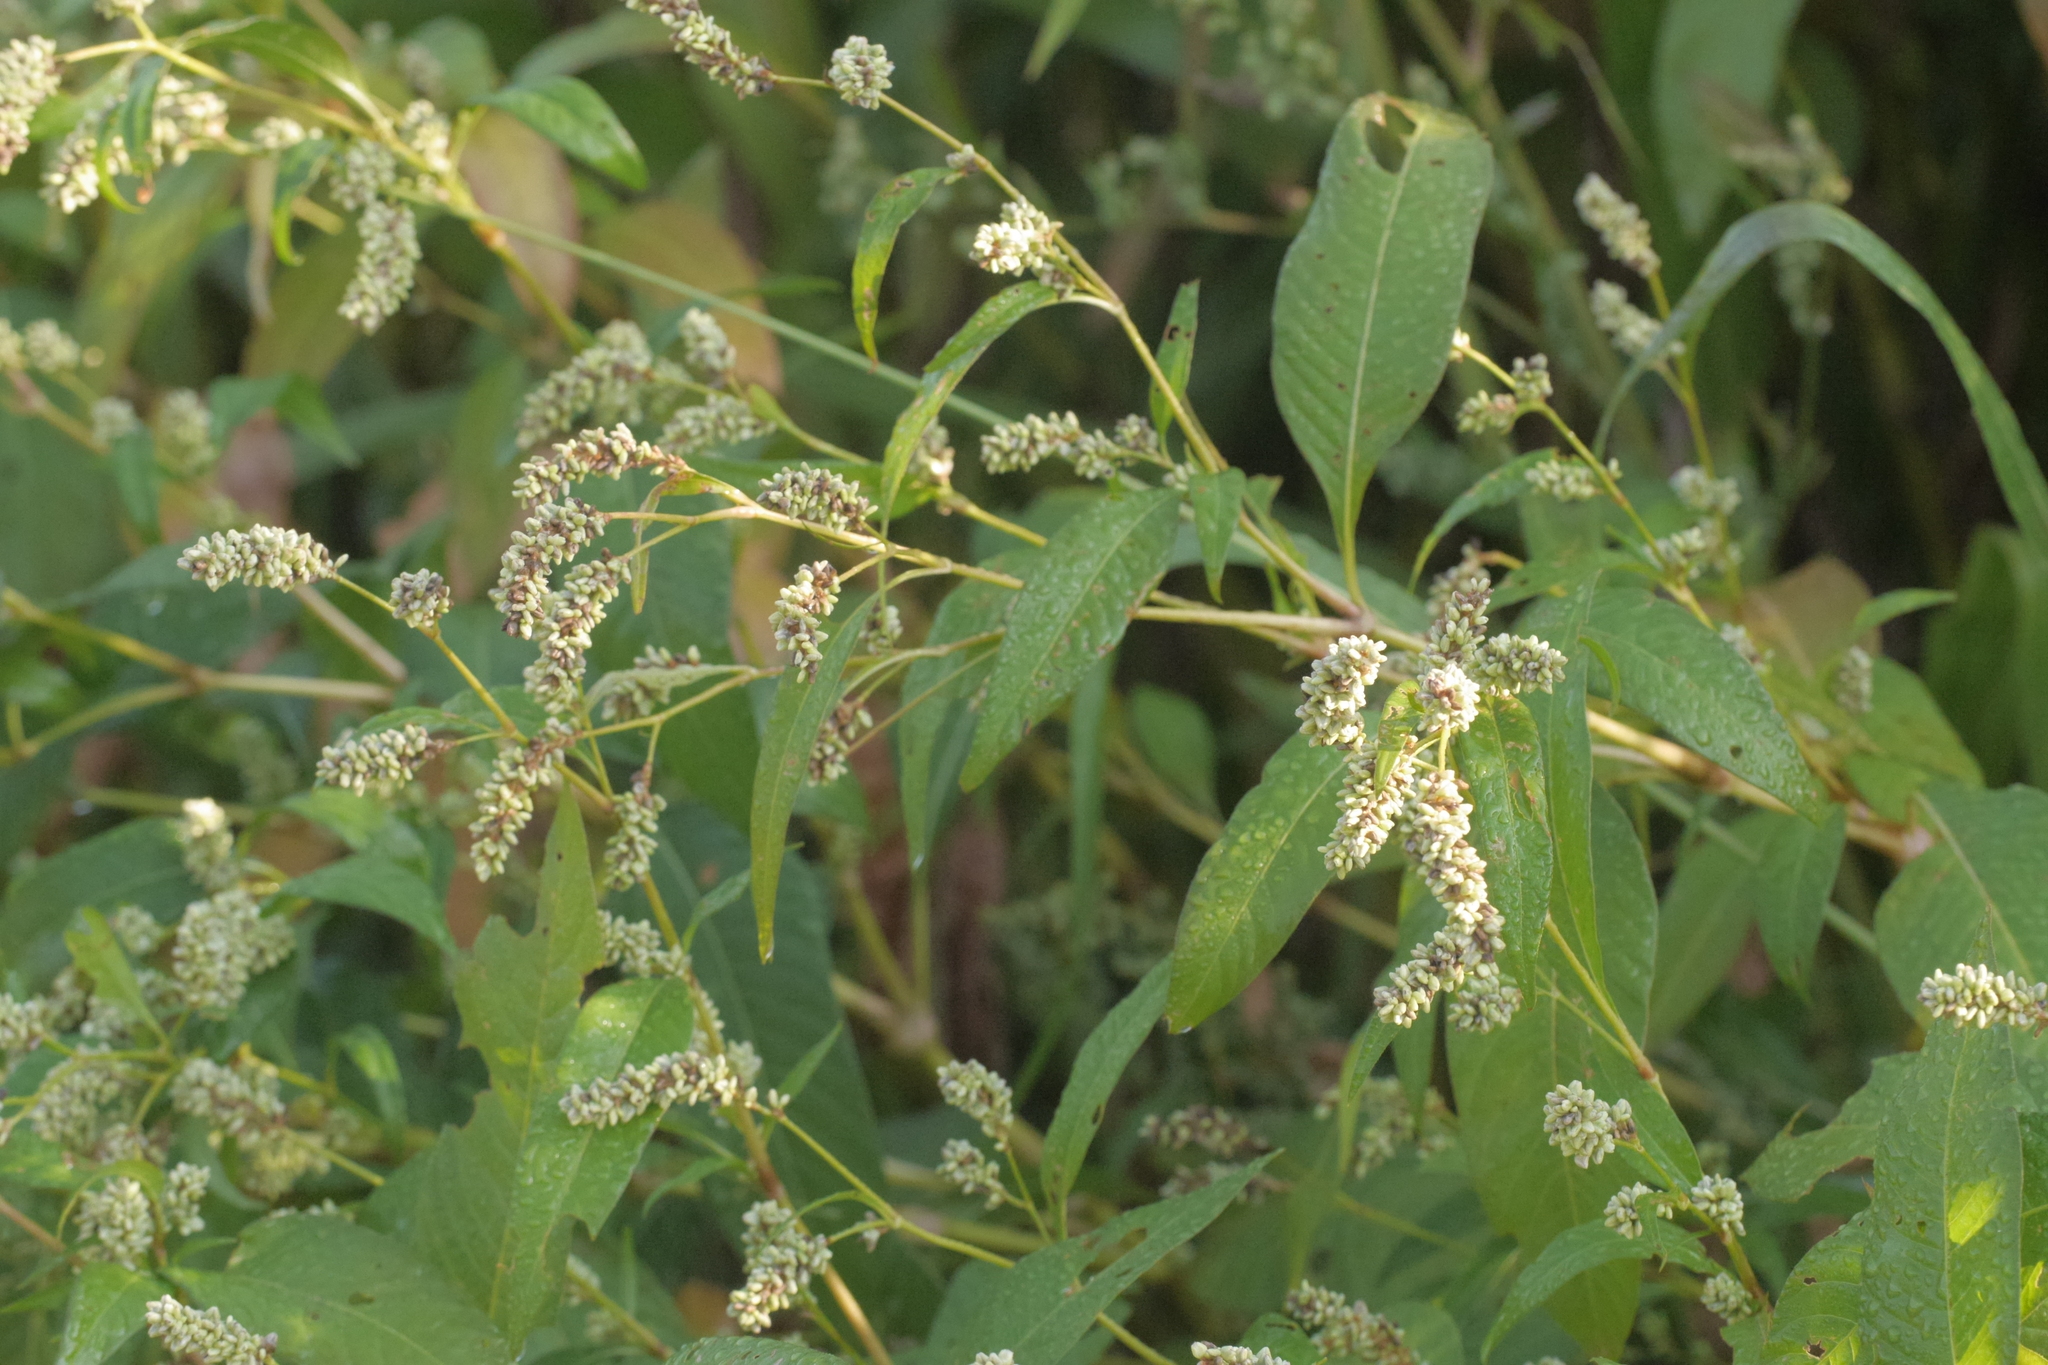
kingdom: Plantae
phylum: Tracheophyta
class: Magnoliopsida
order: Caryophyllales
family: Polygonaceae
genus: Persicaria
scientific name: Persicaria lapathifolia
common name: Curlytop knotweed
